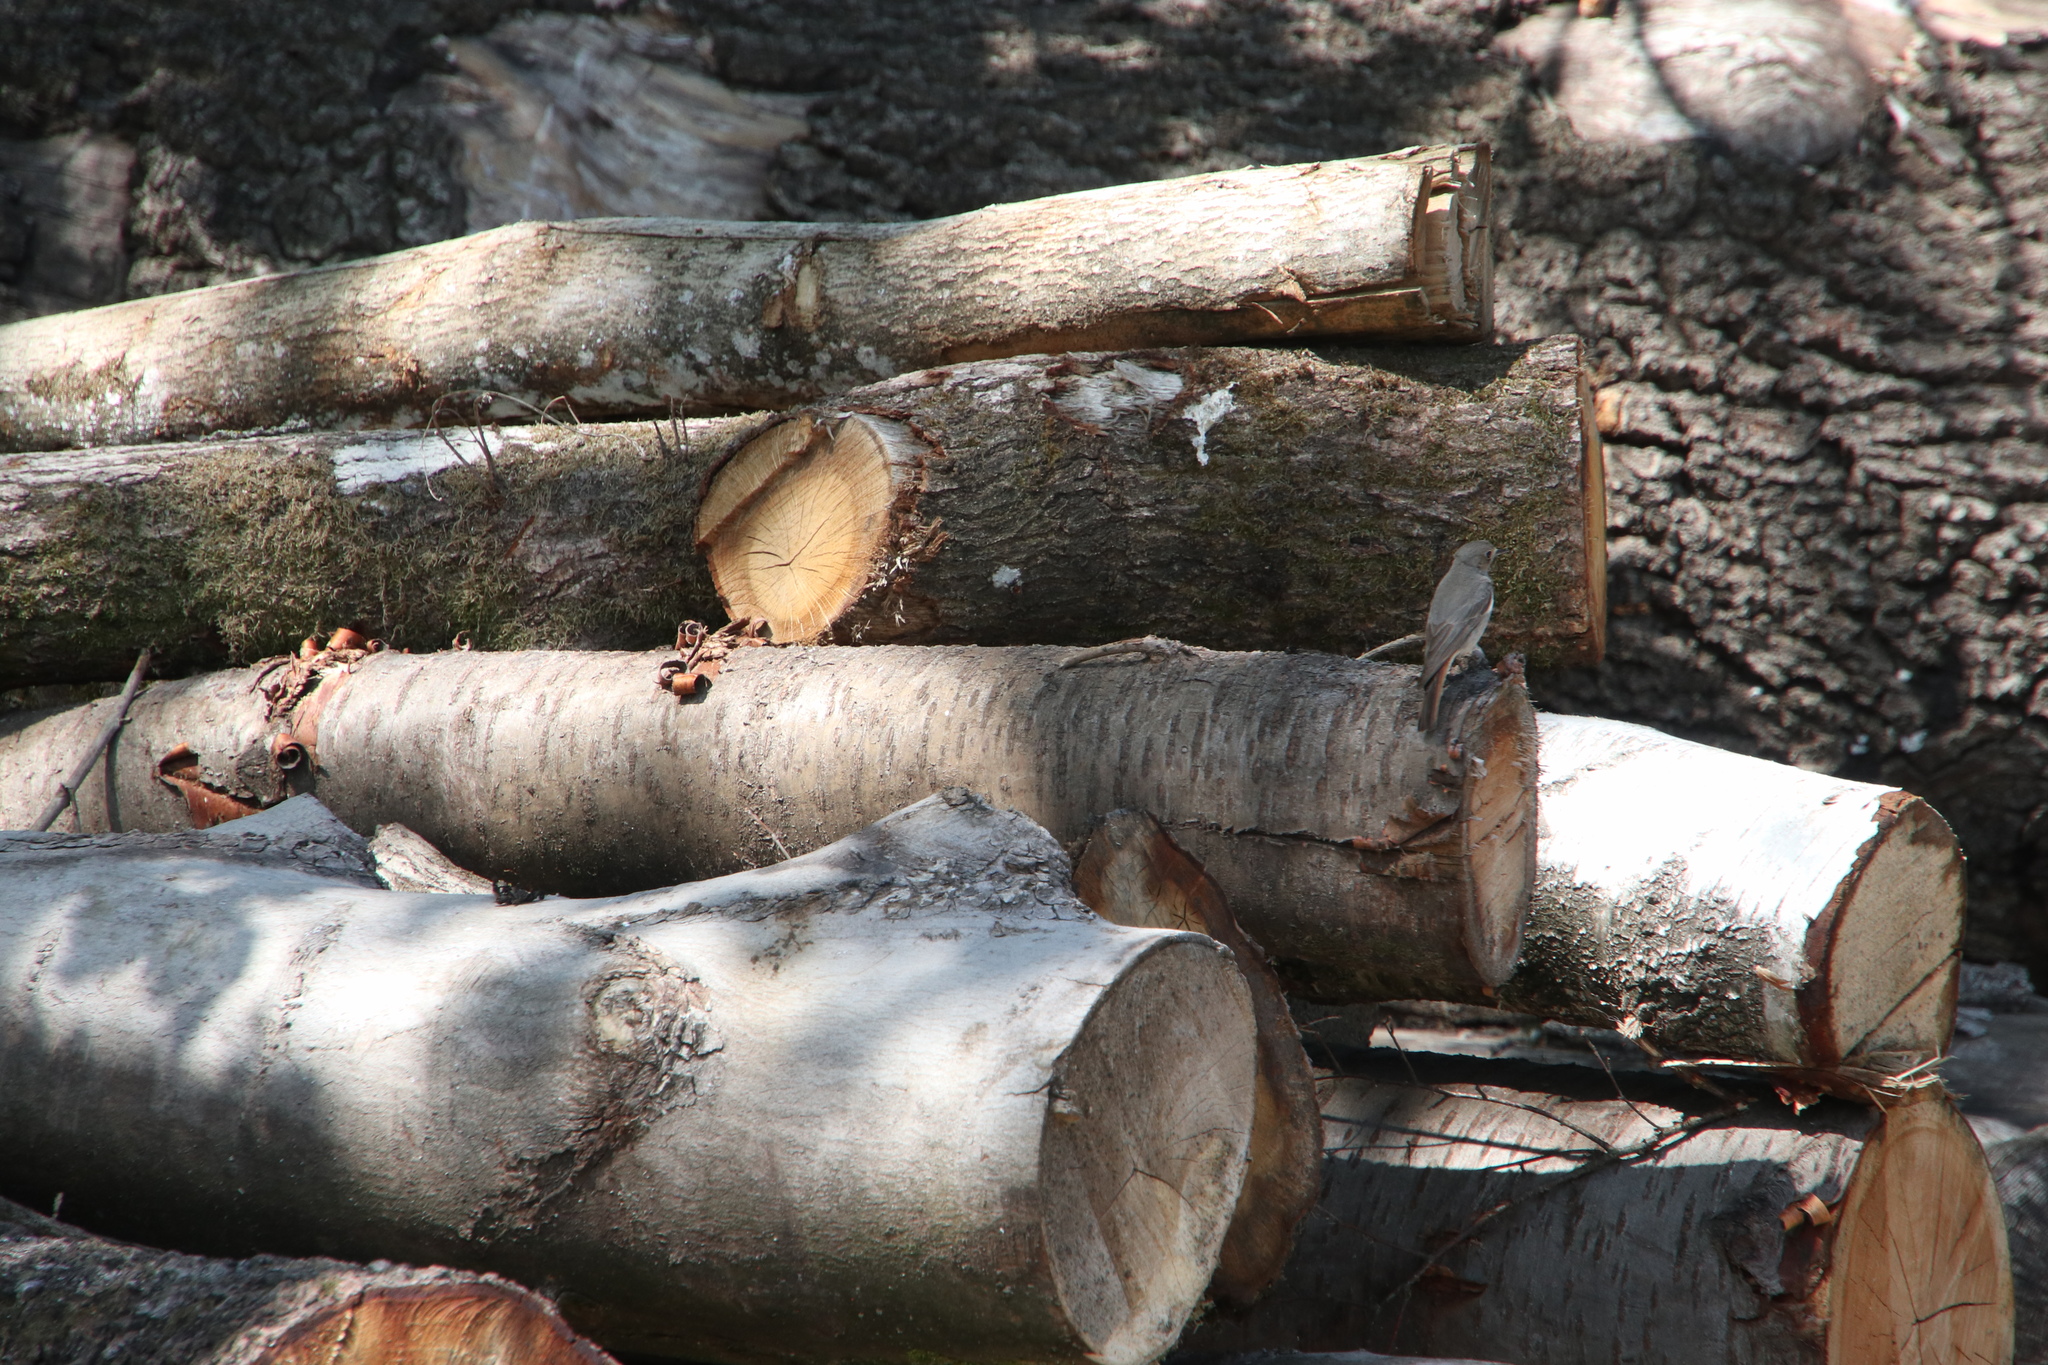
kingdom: Animalia
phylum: Chordata
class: Aves
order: Passeriformes
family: Muscicapidae
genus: Phoenicurus
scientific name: Phoenicurus ochruros
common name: Black redstart
